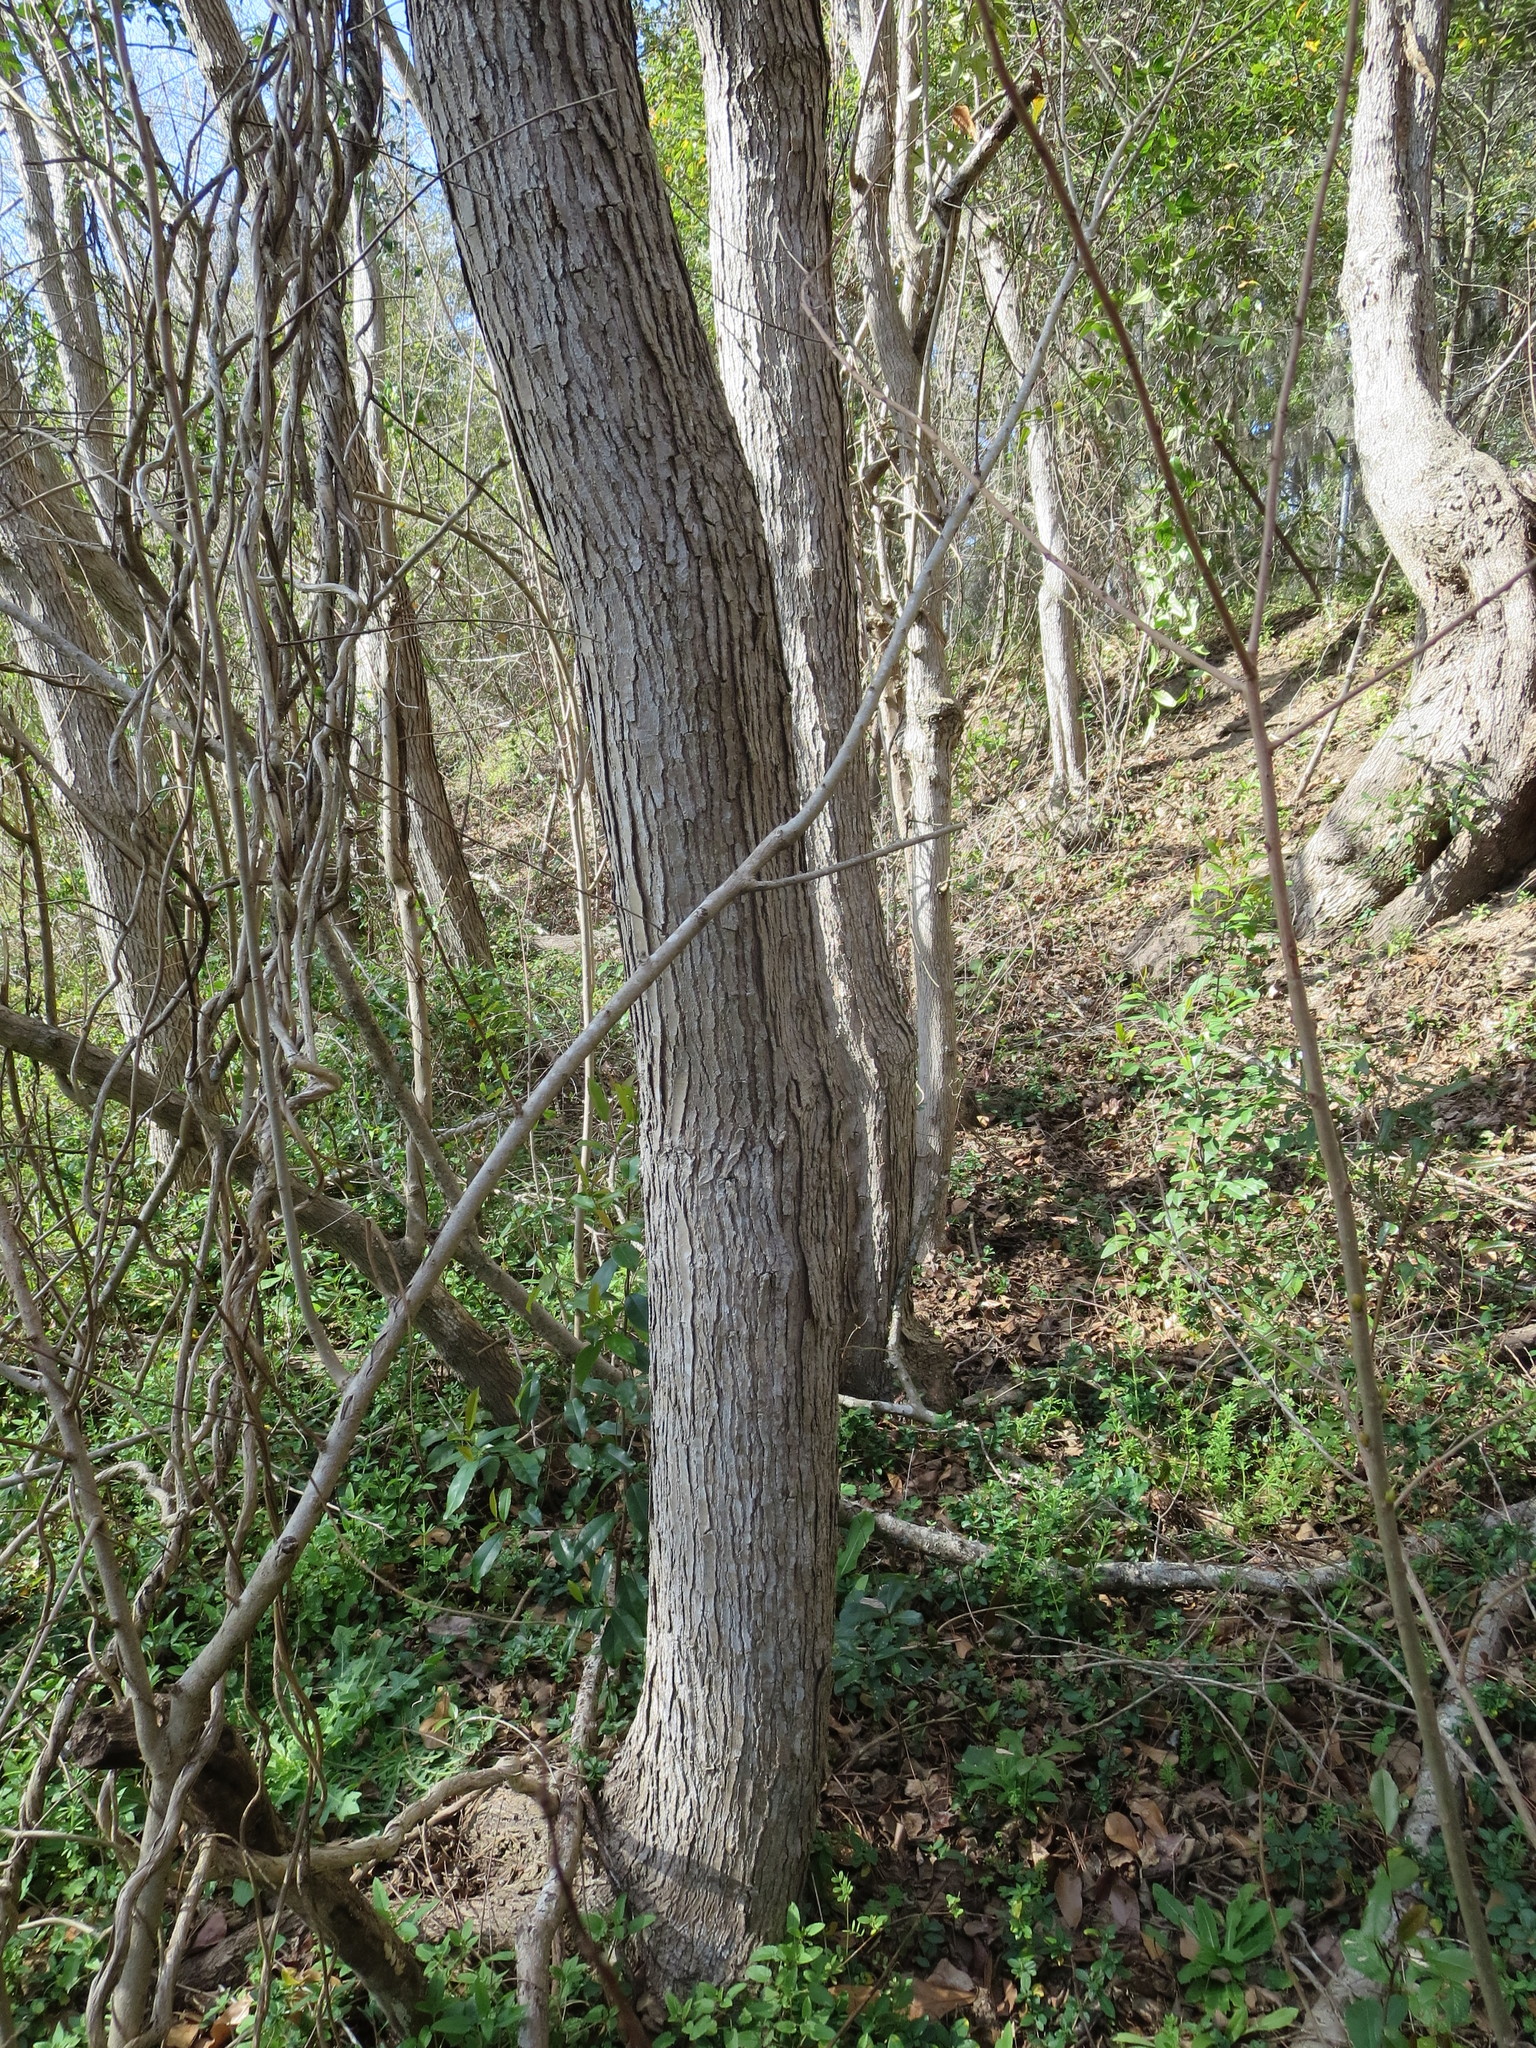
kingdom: Plantae
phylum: Tracheophyta
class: Magnoliopsida
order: Malpighiales
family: Euphorbiaceae
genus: Triadica
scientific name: Triadica sebifera
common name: Chinese tallow
